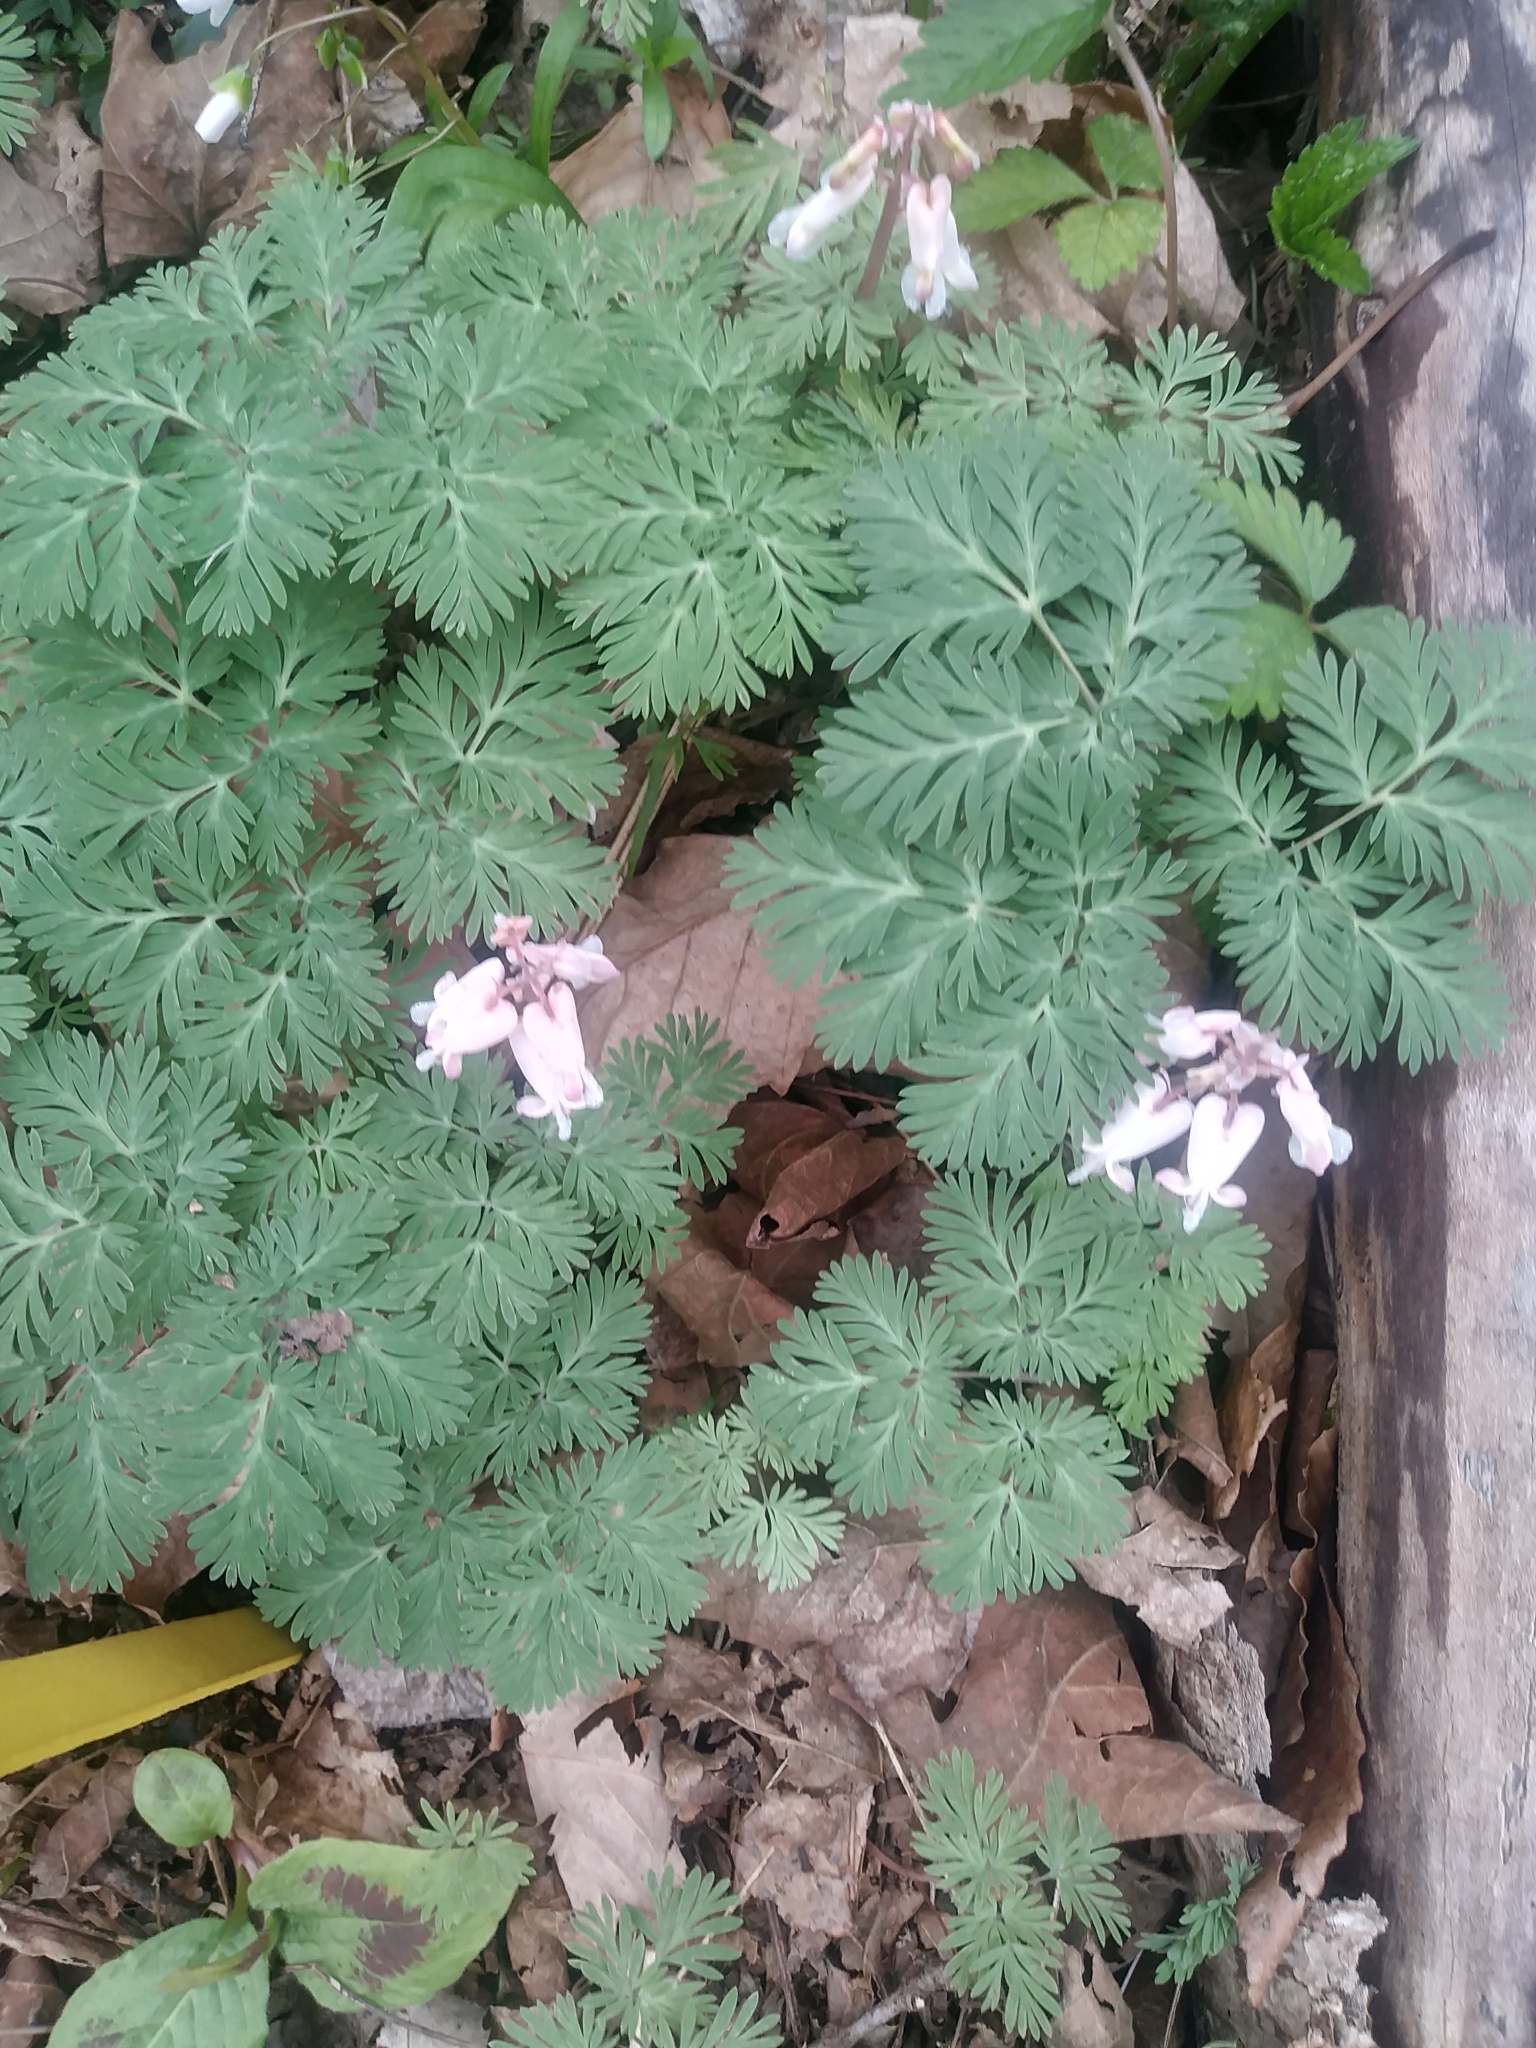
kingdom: Plantae
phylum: Tracheophyta
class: Magnoliopsida
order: Ranunculales
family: Papaveraceae
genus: Dicentra
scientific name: Dicentra canadensis
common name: Squirrel-corn
